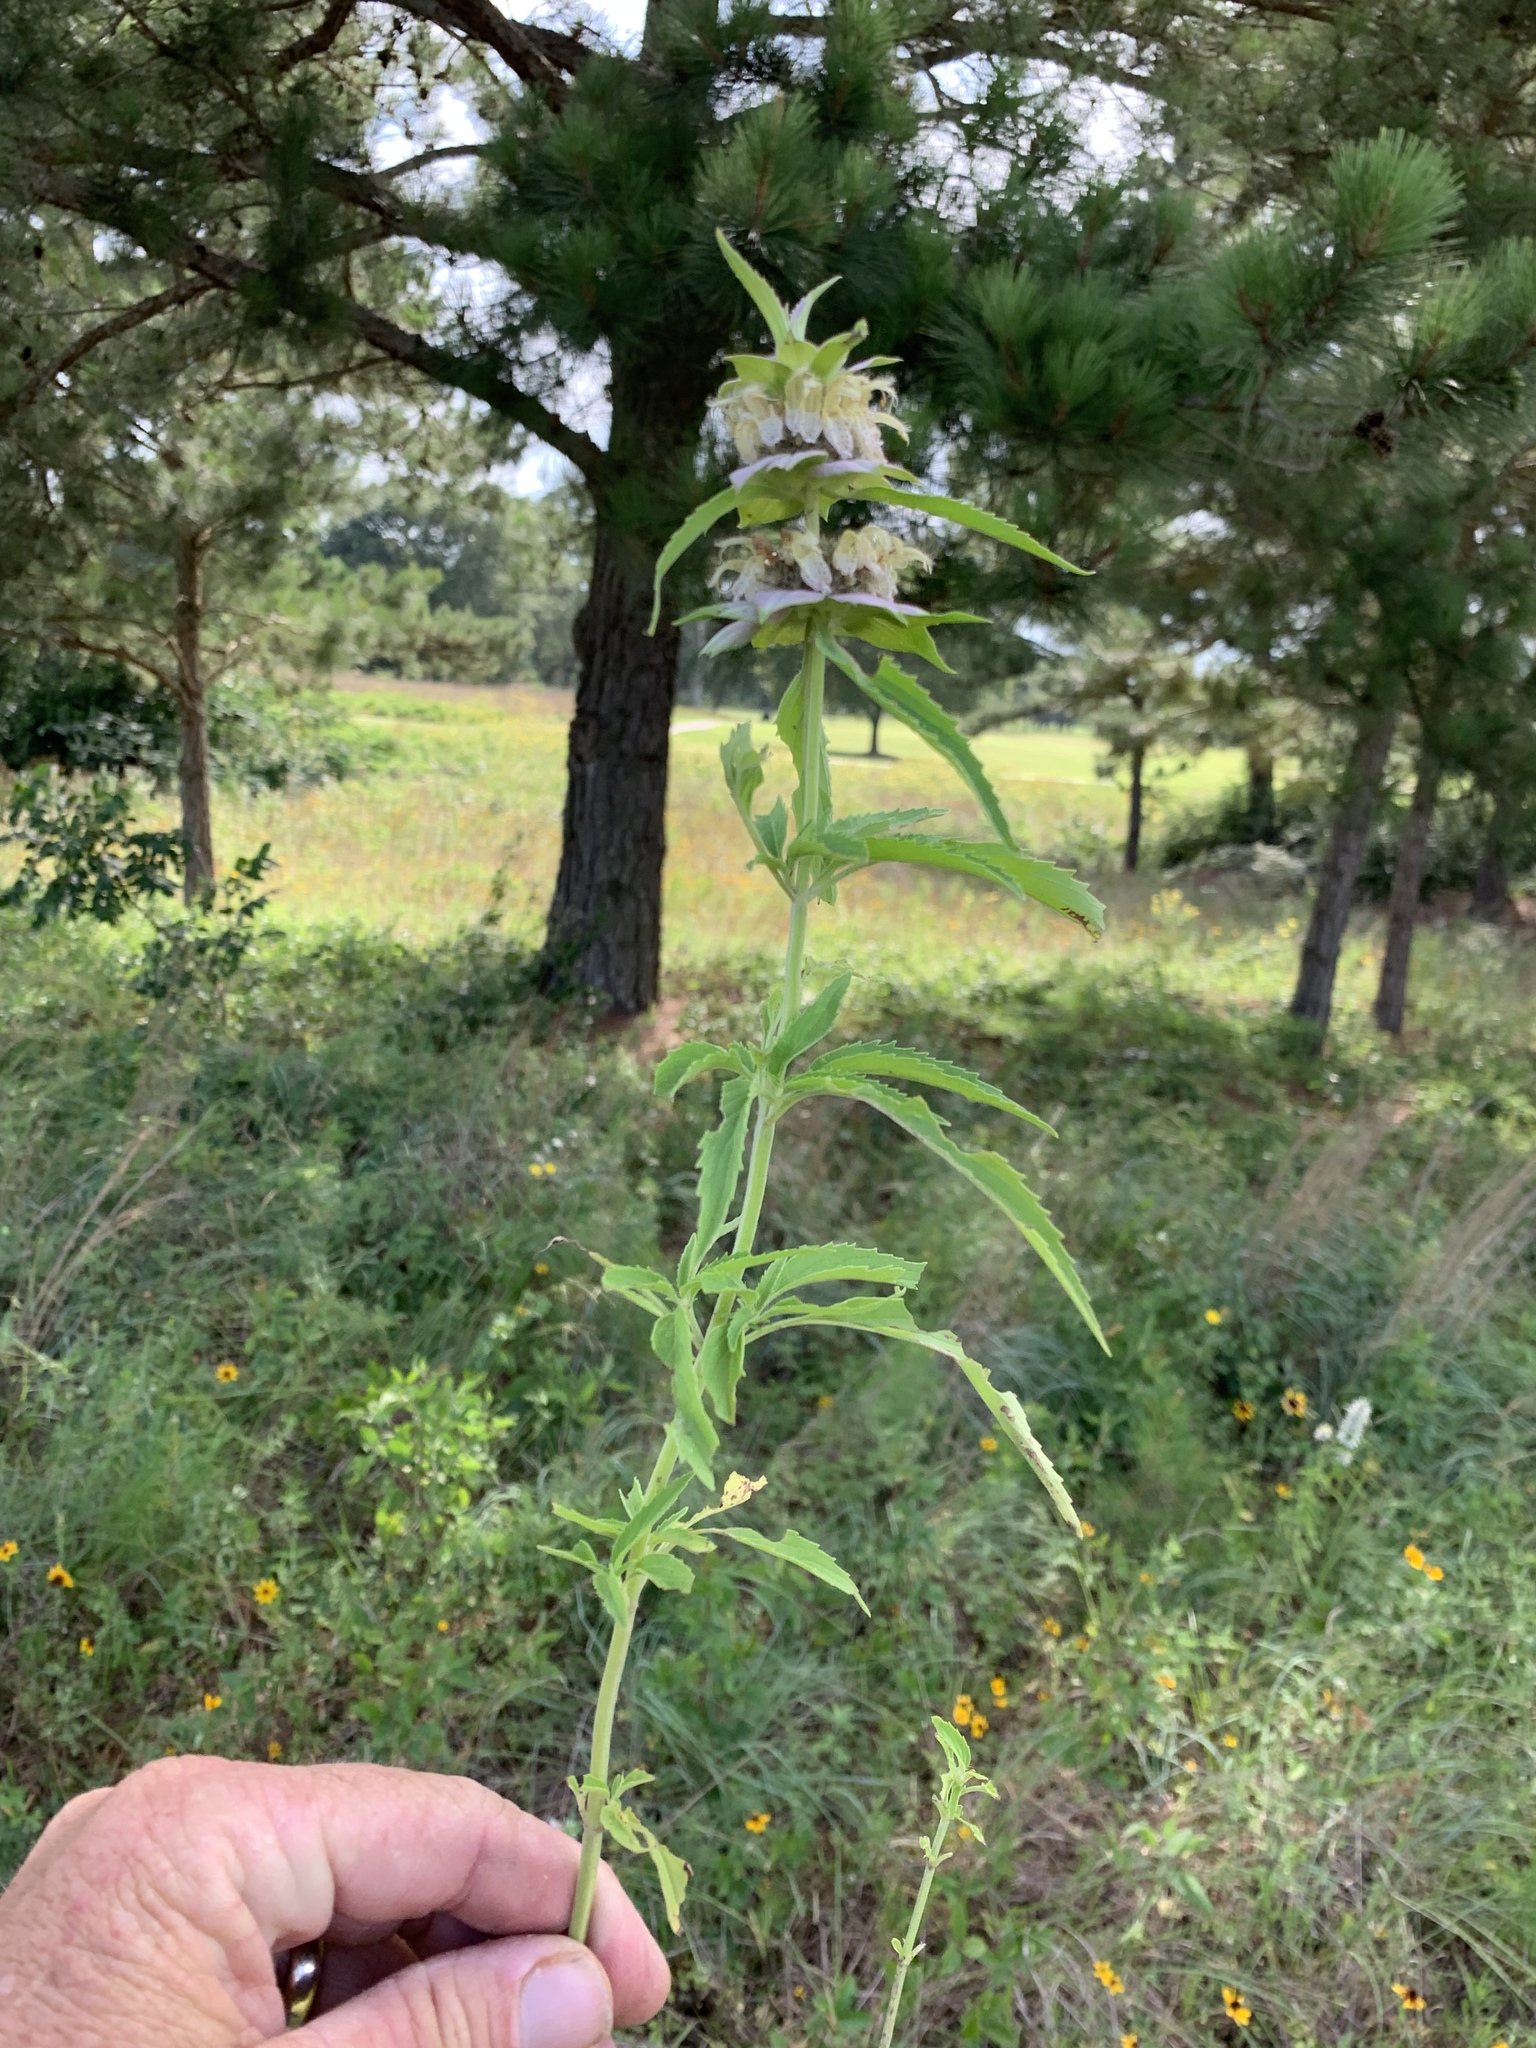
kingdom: Plantae
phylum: Tracheophyta
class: Magnoliopsida
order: Lamiales
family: Lamiaceae
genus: Monarda
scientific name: Monarda punctata
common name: Dotted monarda
